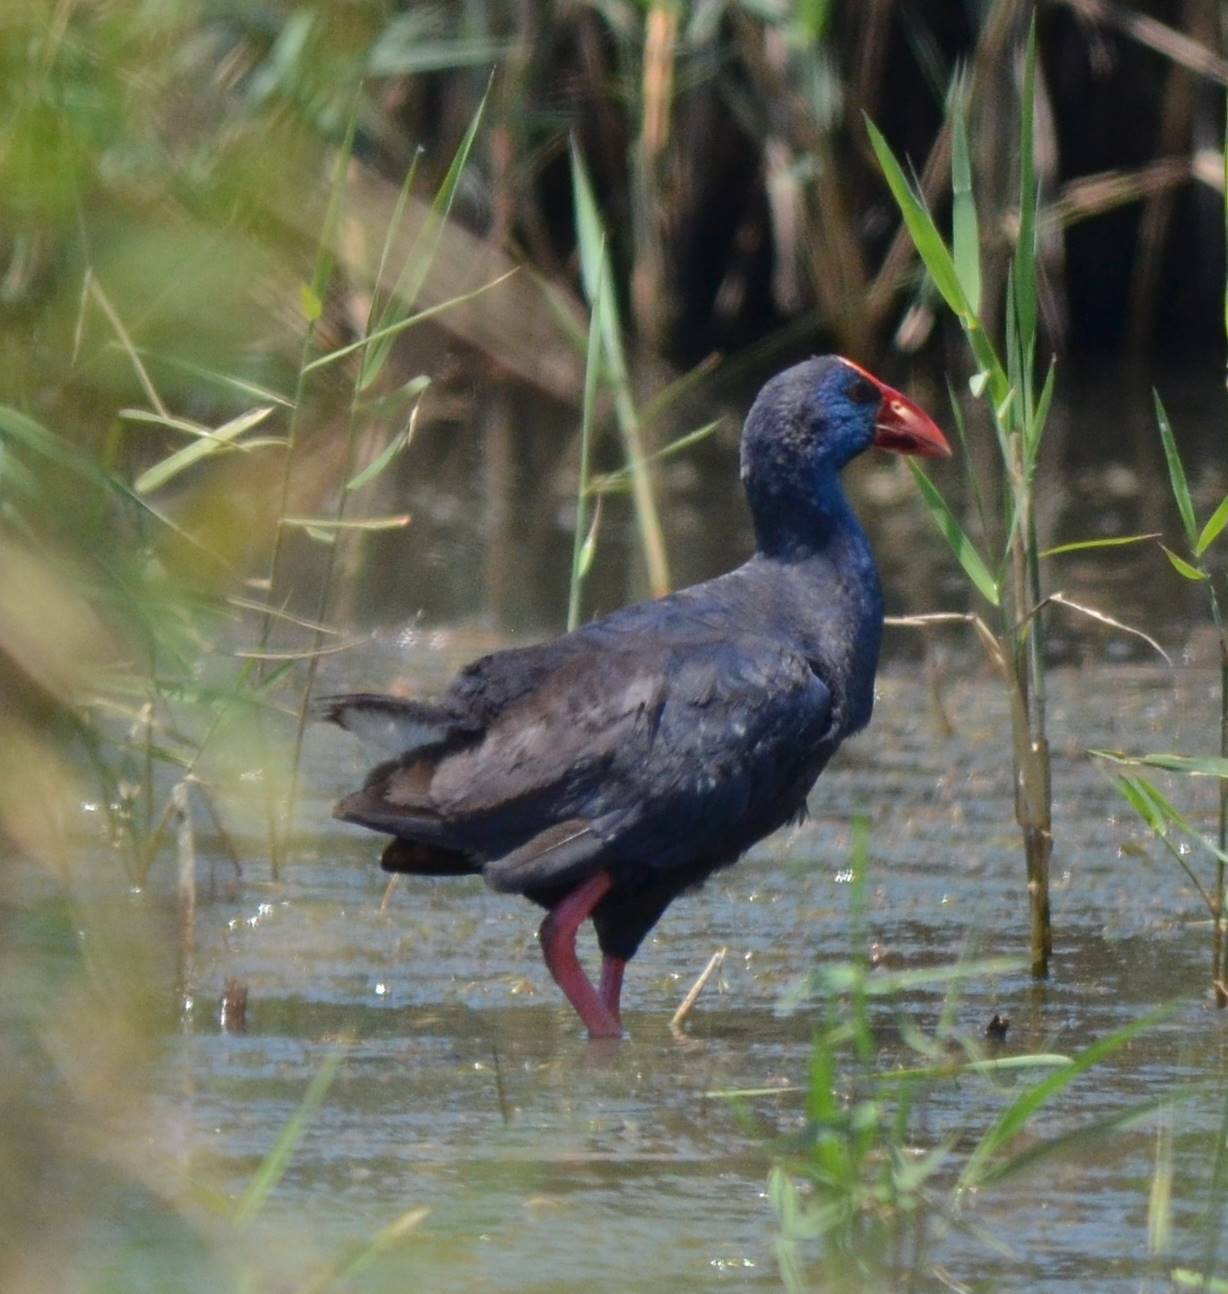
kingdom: Animalia
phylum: Chordata
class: Aves
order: Gruiformes
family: Rallidae
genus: Porphyrio
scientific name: Porphyrio porphyrio
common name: Purple swamphen
